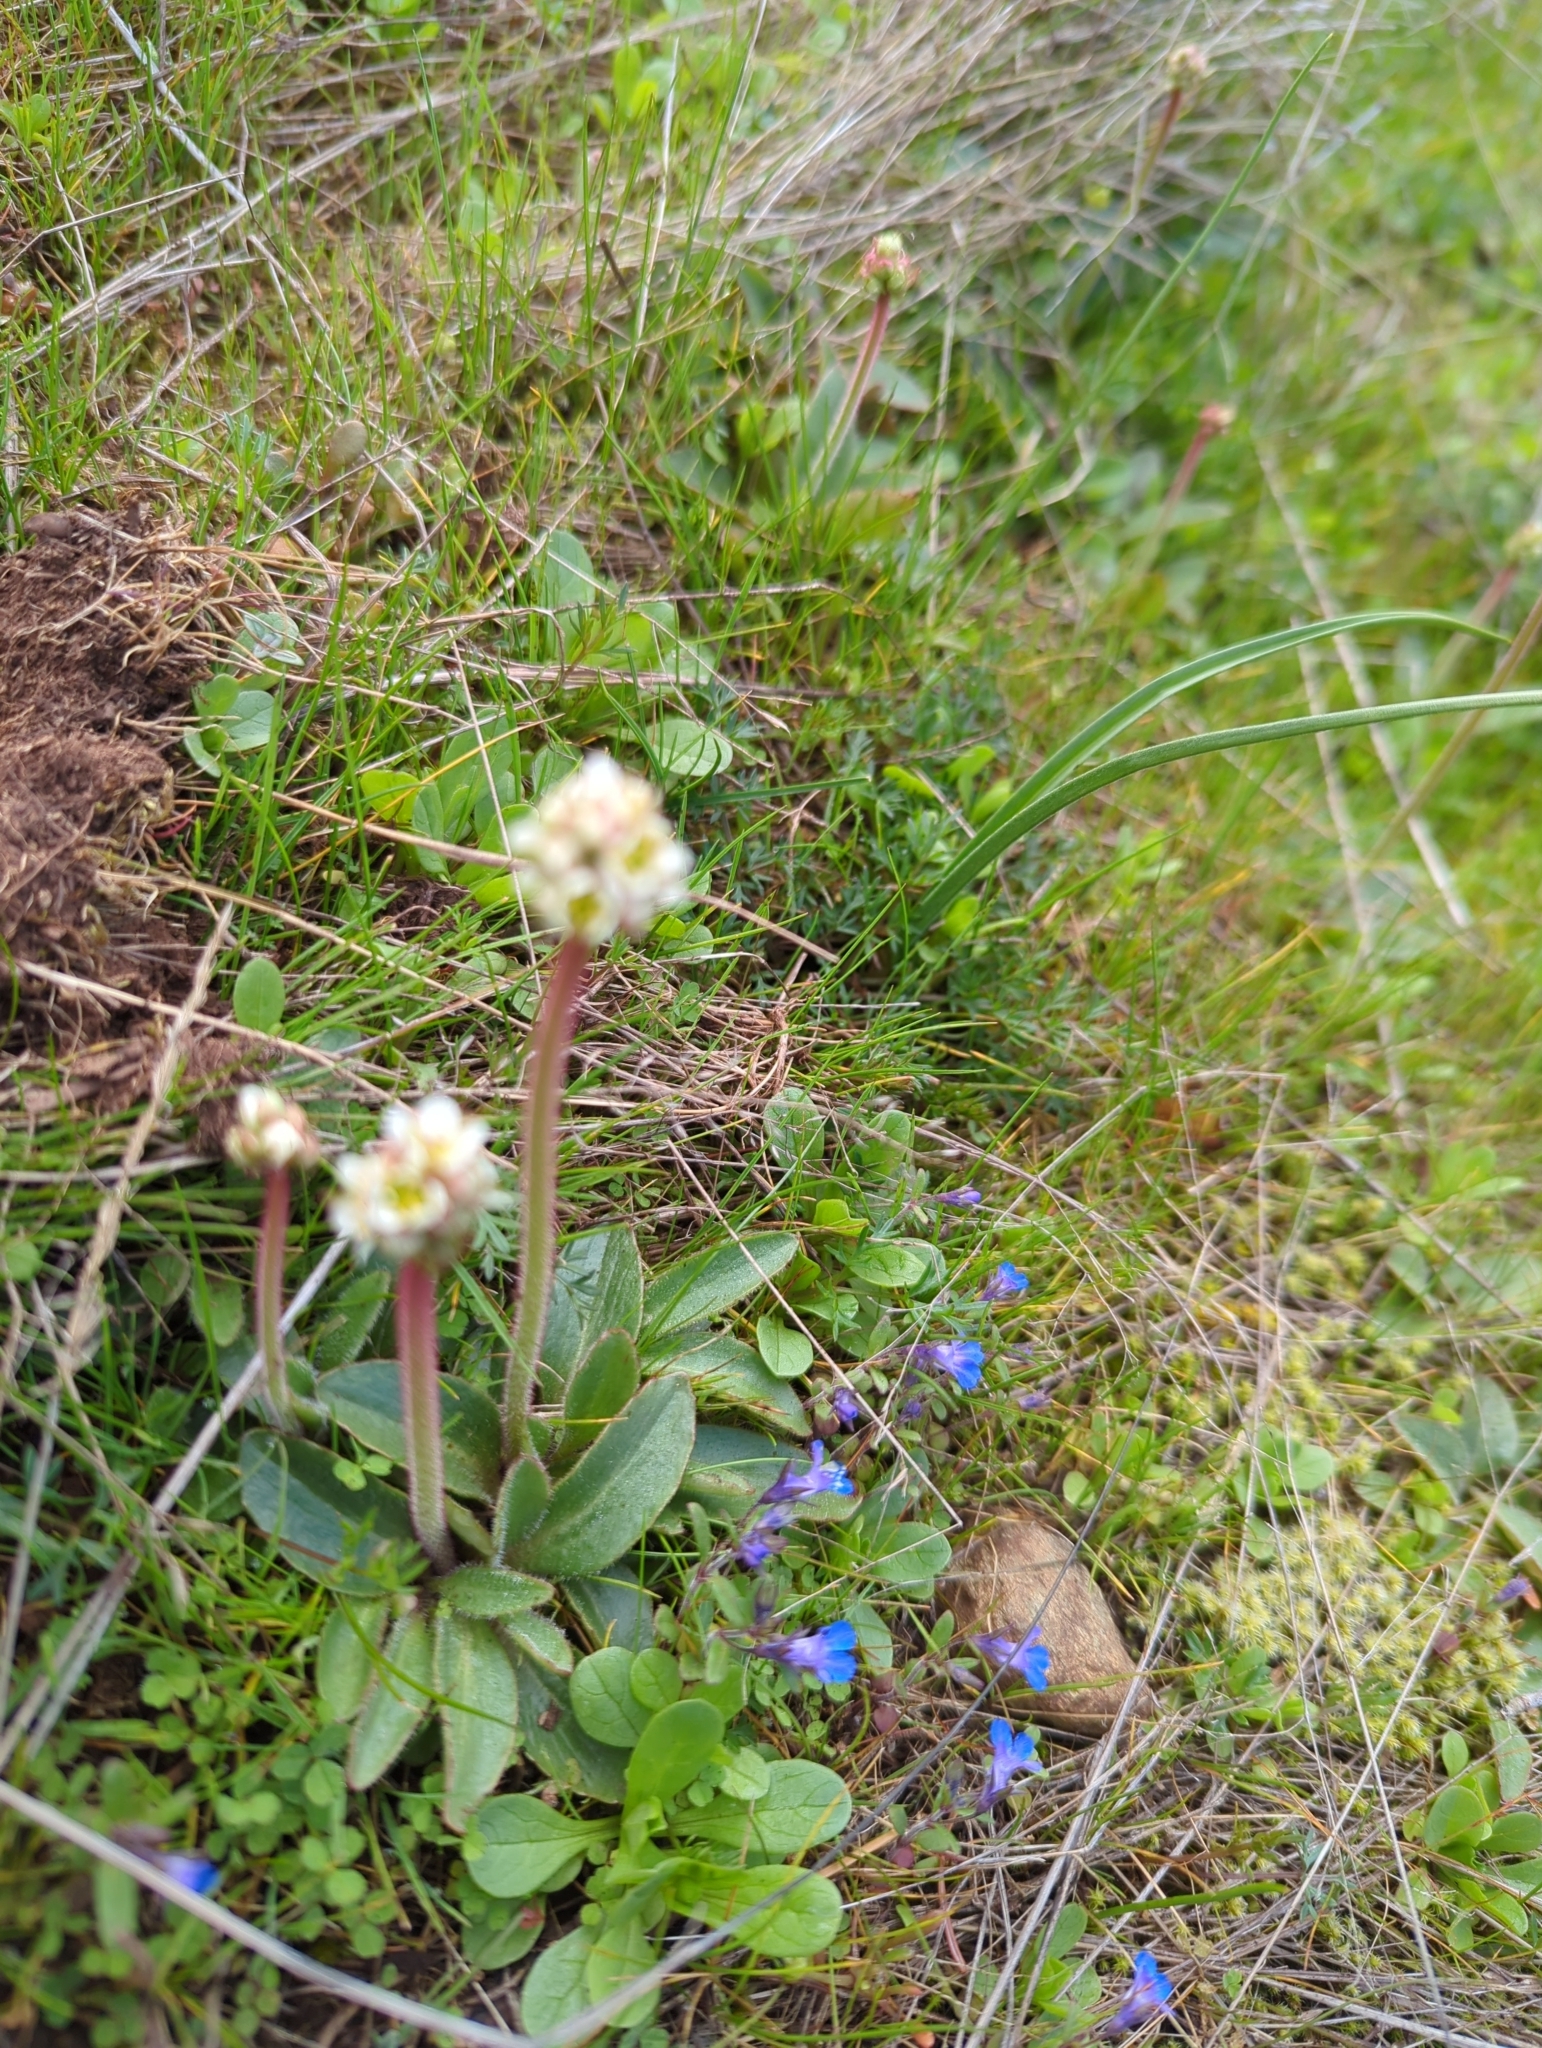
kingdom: Plantae
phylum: Tracheophyta
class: Magnoliopsida
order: Saxifragales
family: Saxifragaceae
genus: Micranthes
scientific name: Micranthes integrifolia
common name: Wholeleaf saxifrage
